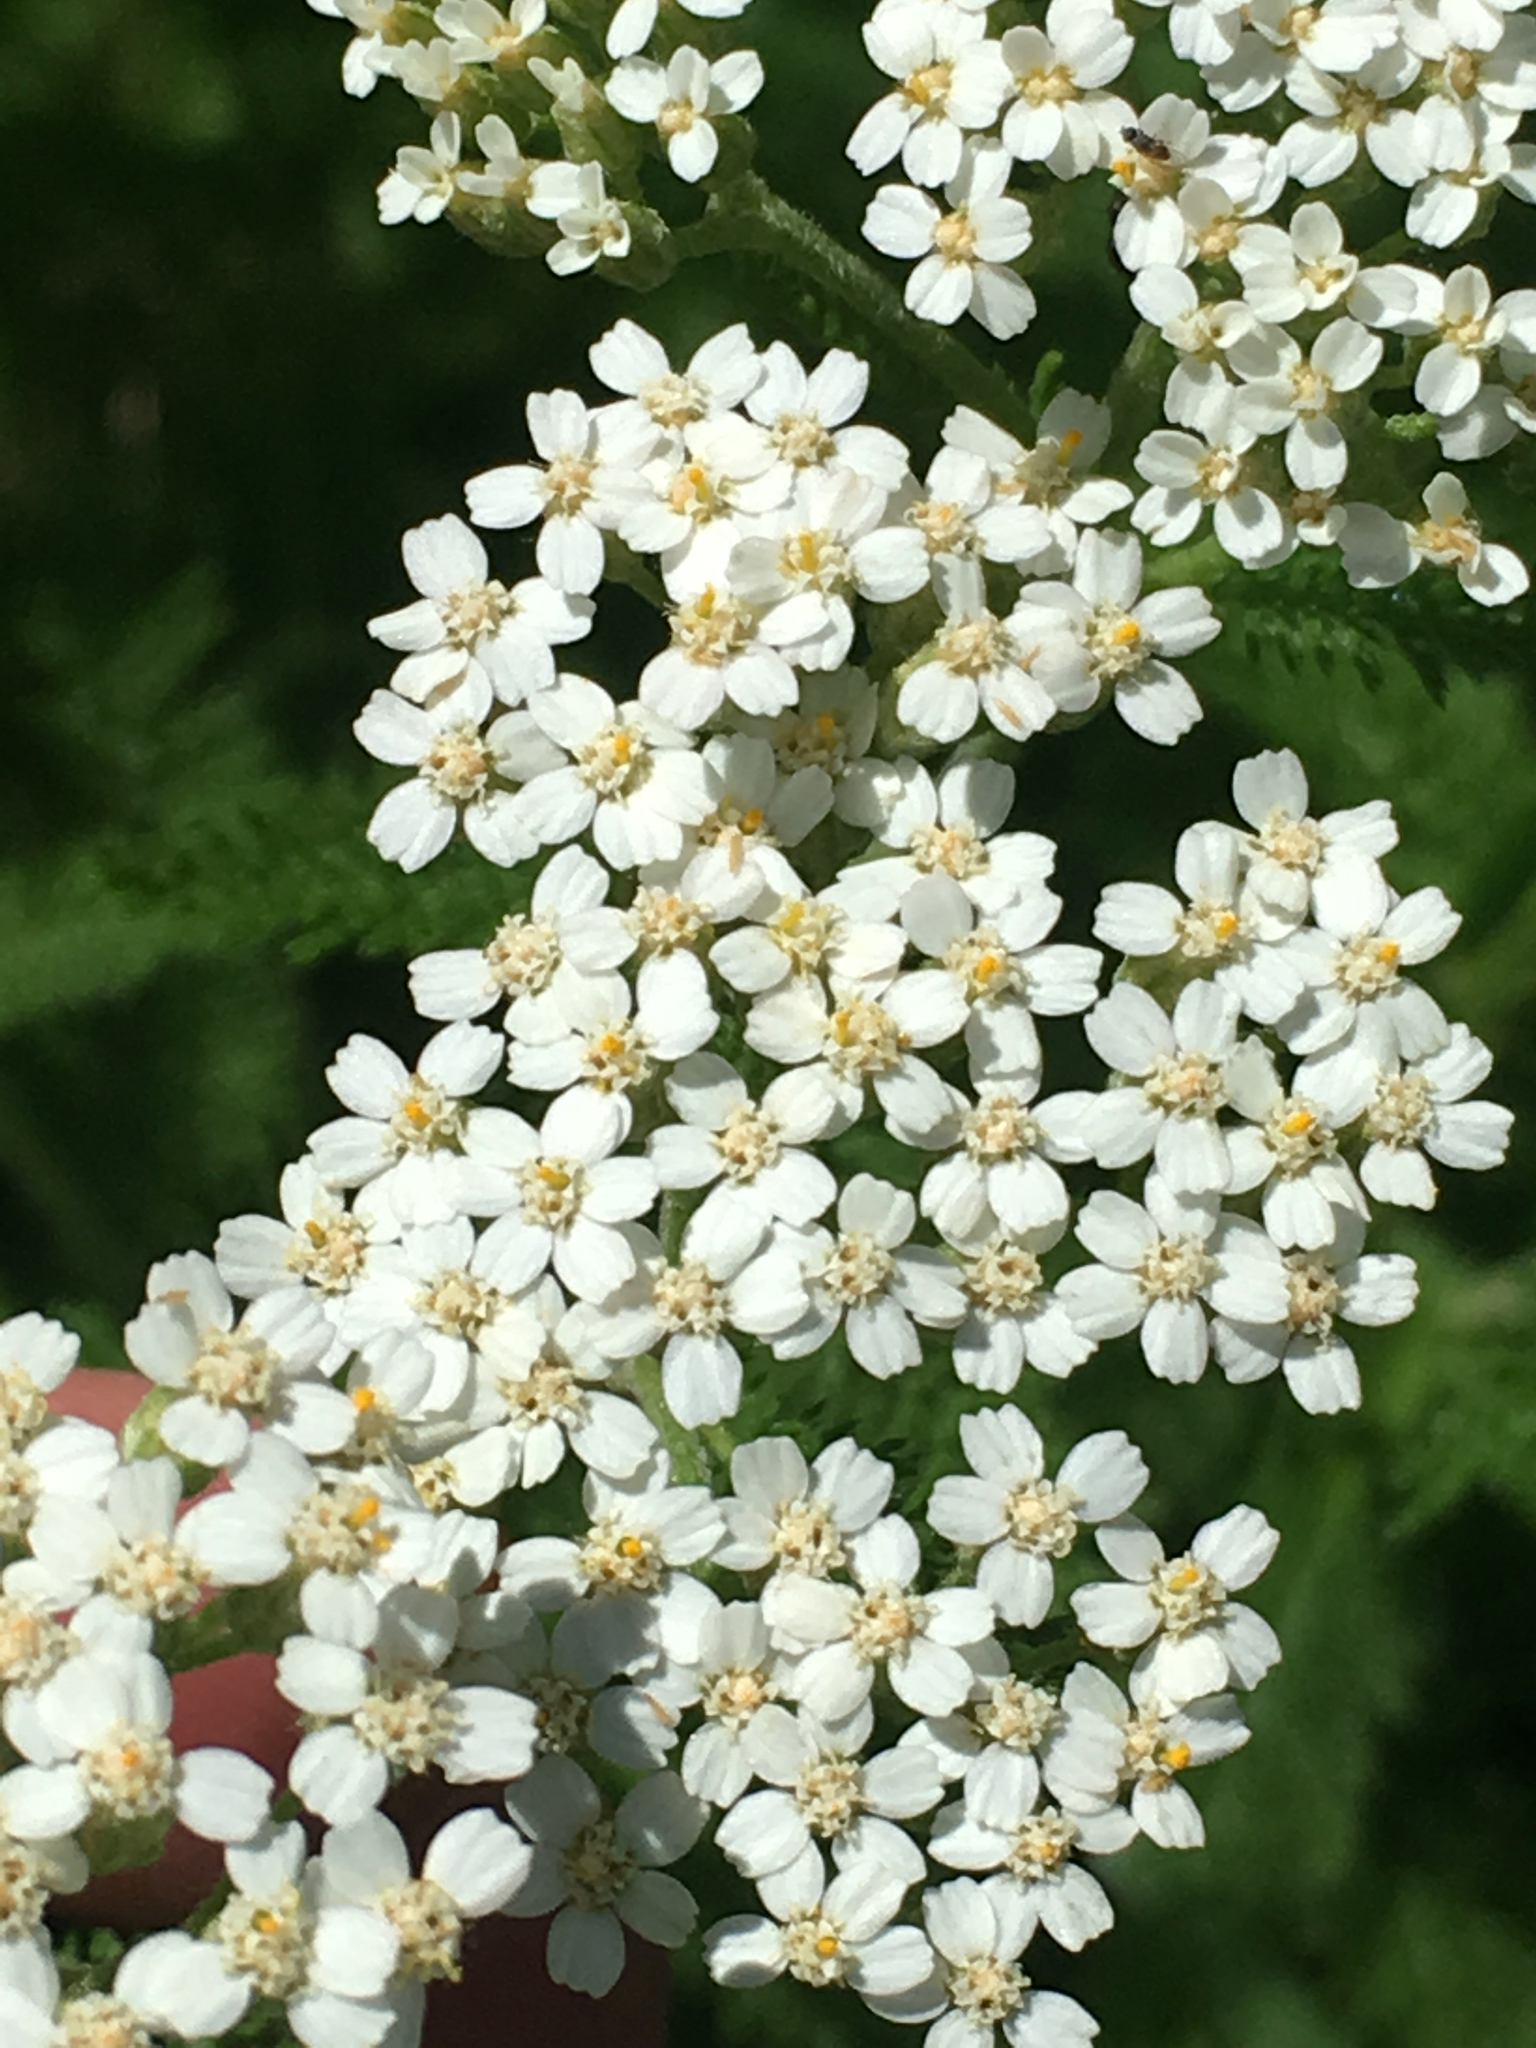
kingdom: Plantae
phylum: Tracheophyta
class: Magnoliopsida
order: Asterales
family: Asteraceae
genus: Achillea
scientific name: Achillea millefolium
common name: Yarrow
